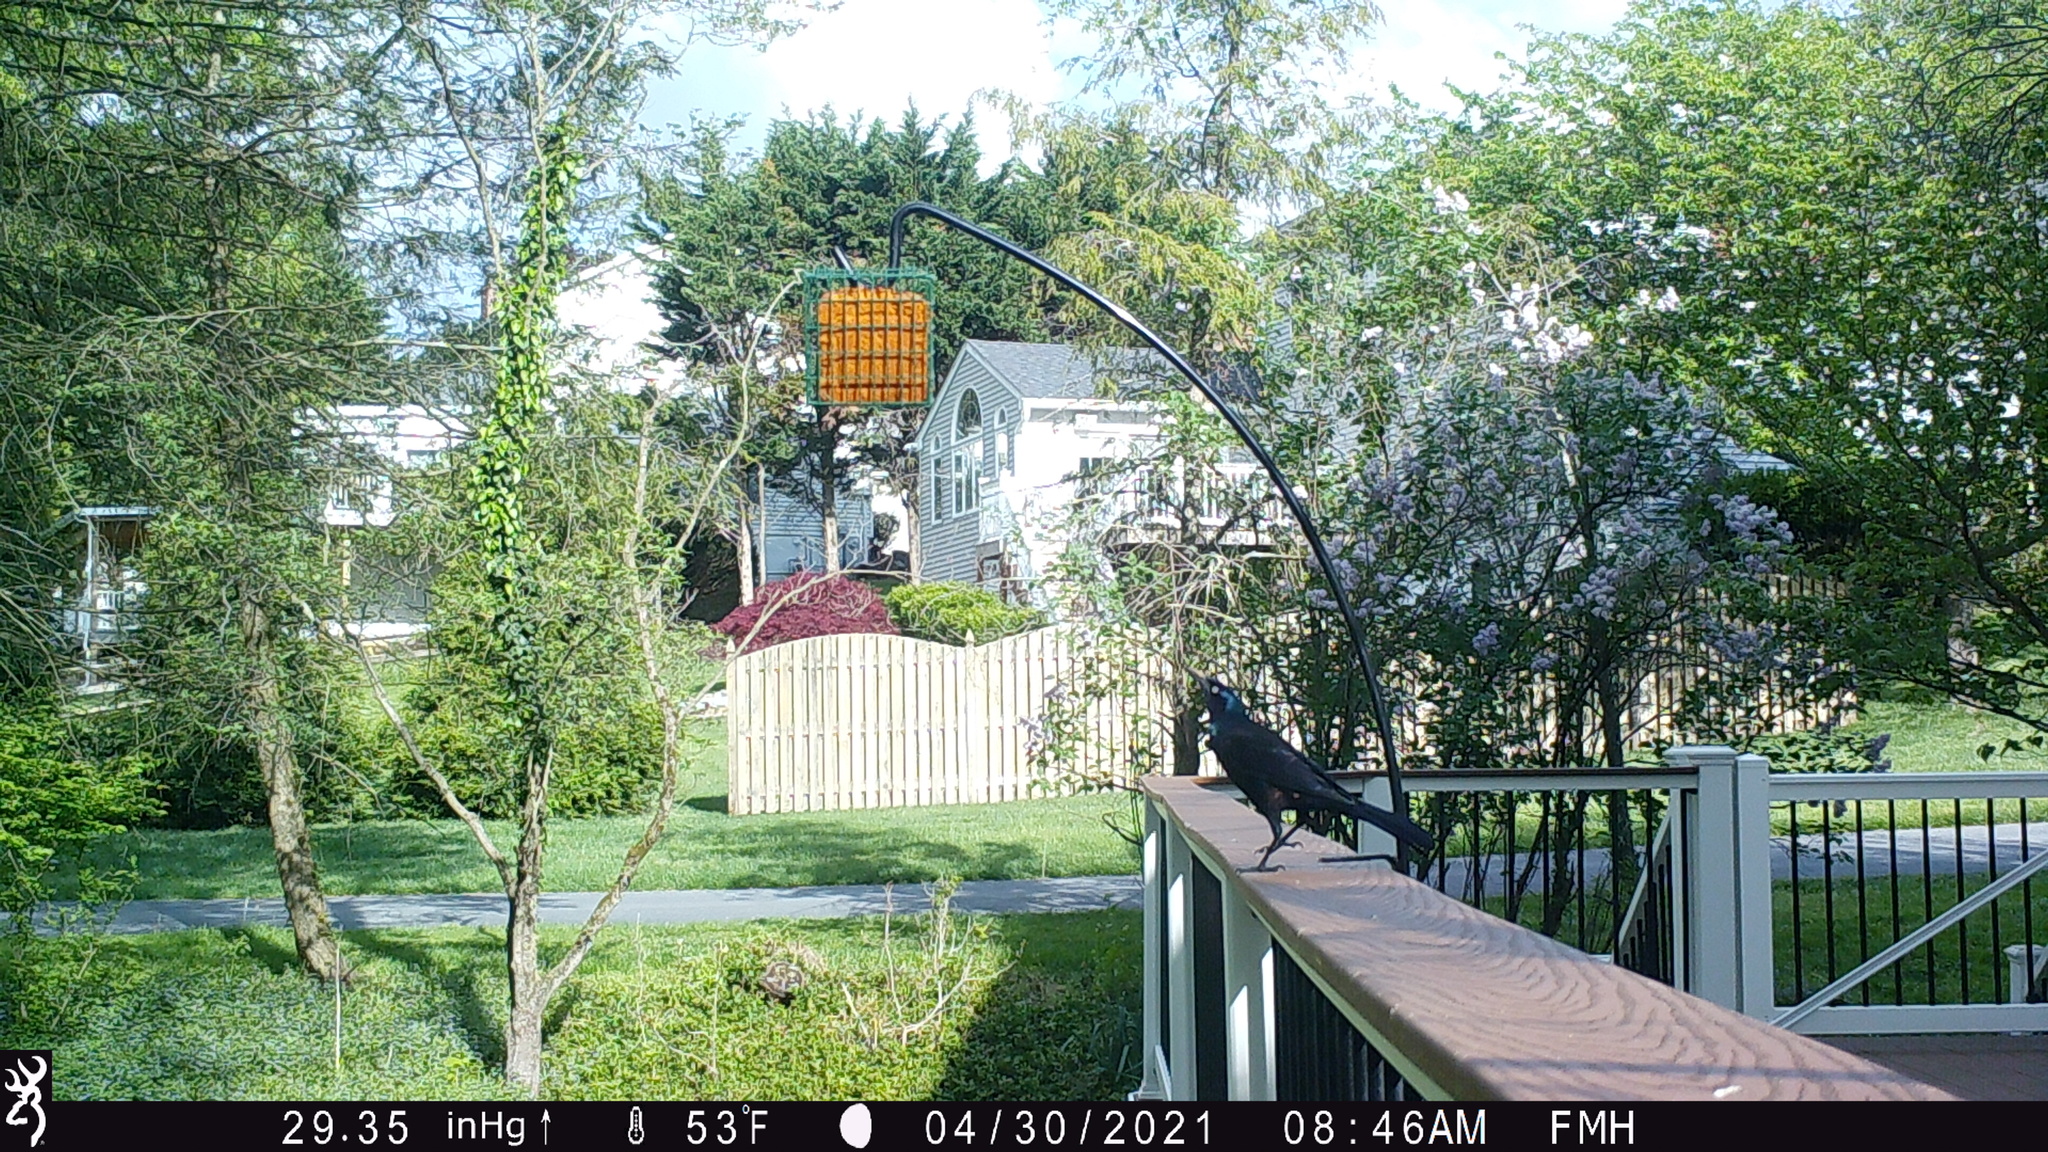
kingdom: Animalia
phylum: Chordata
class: Aves
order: Passeriformes
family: Icteridae
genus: Quiscalus
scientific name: Quiscalus quiscula
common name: Common grackle
